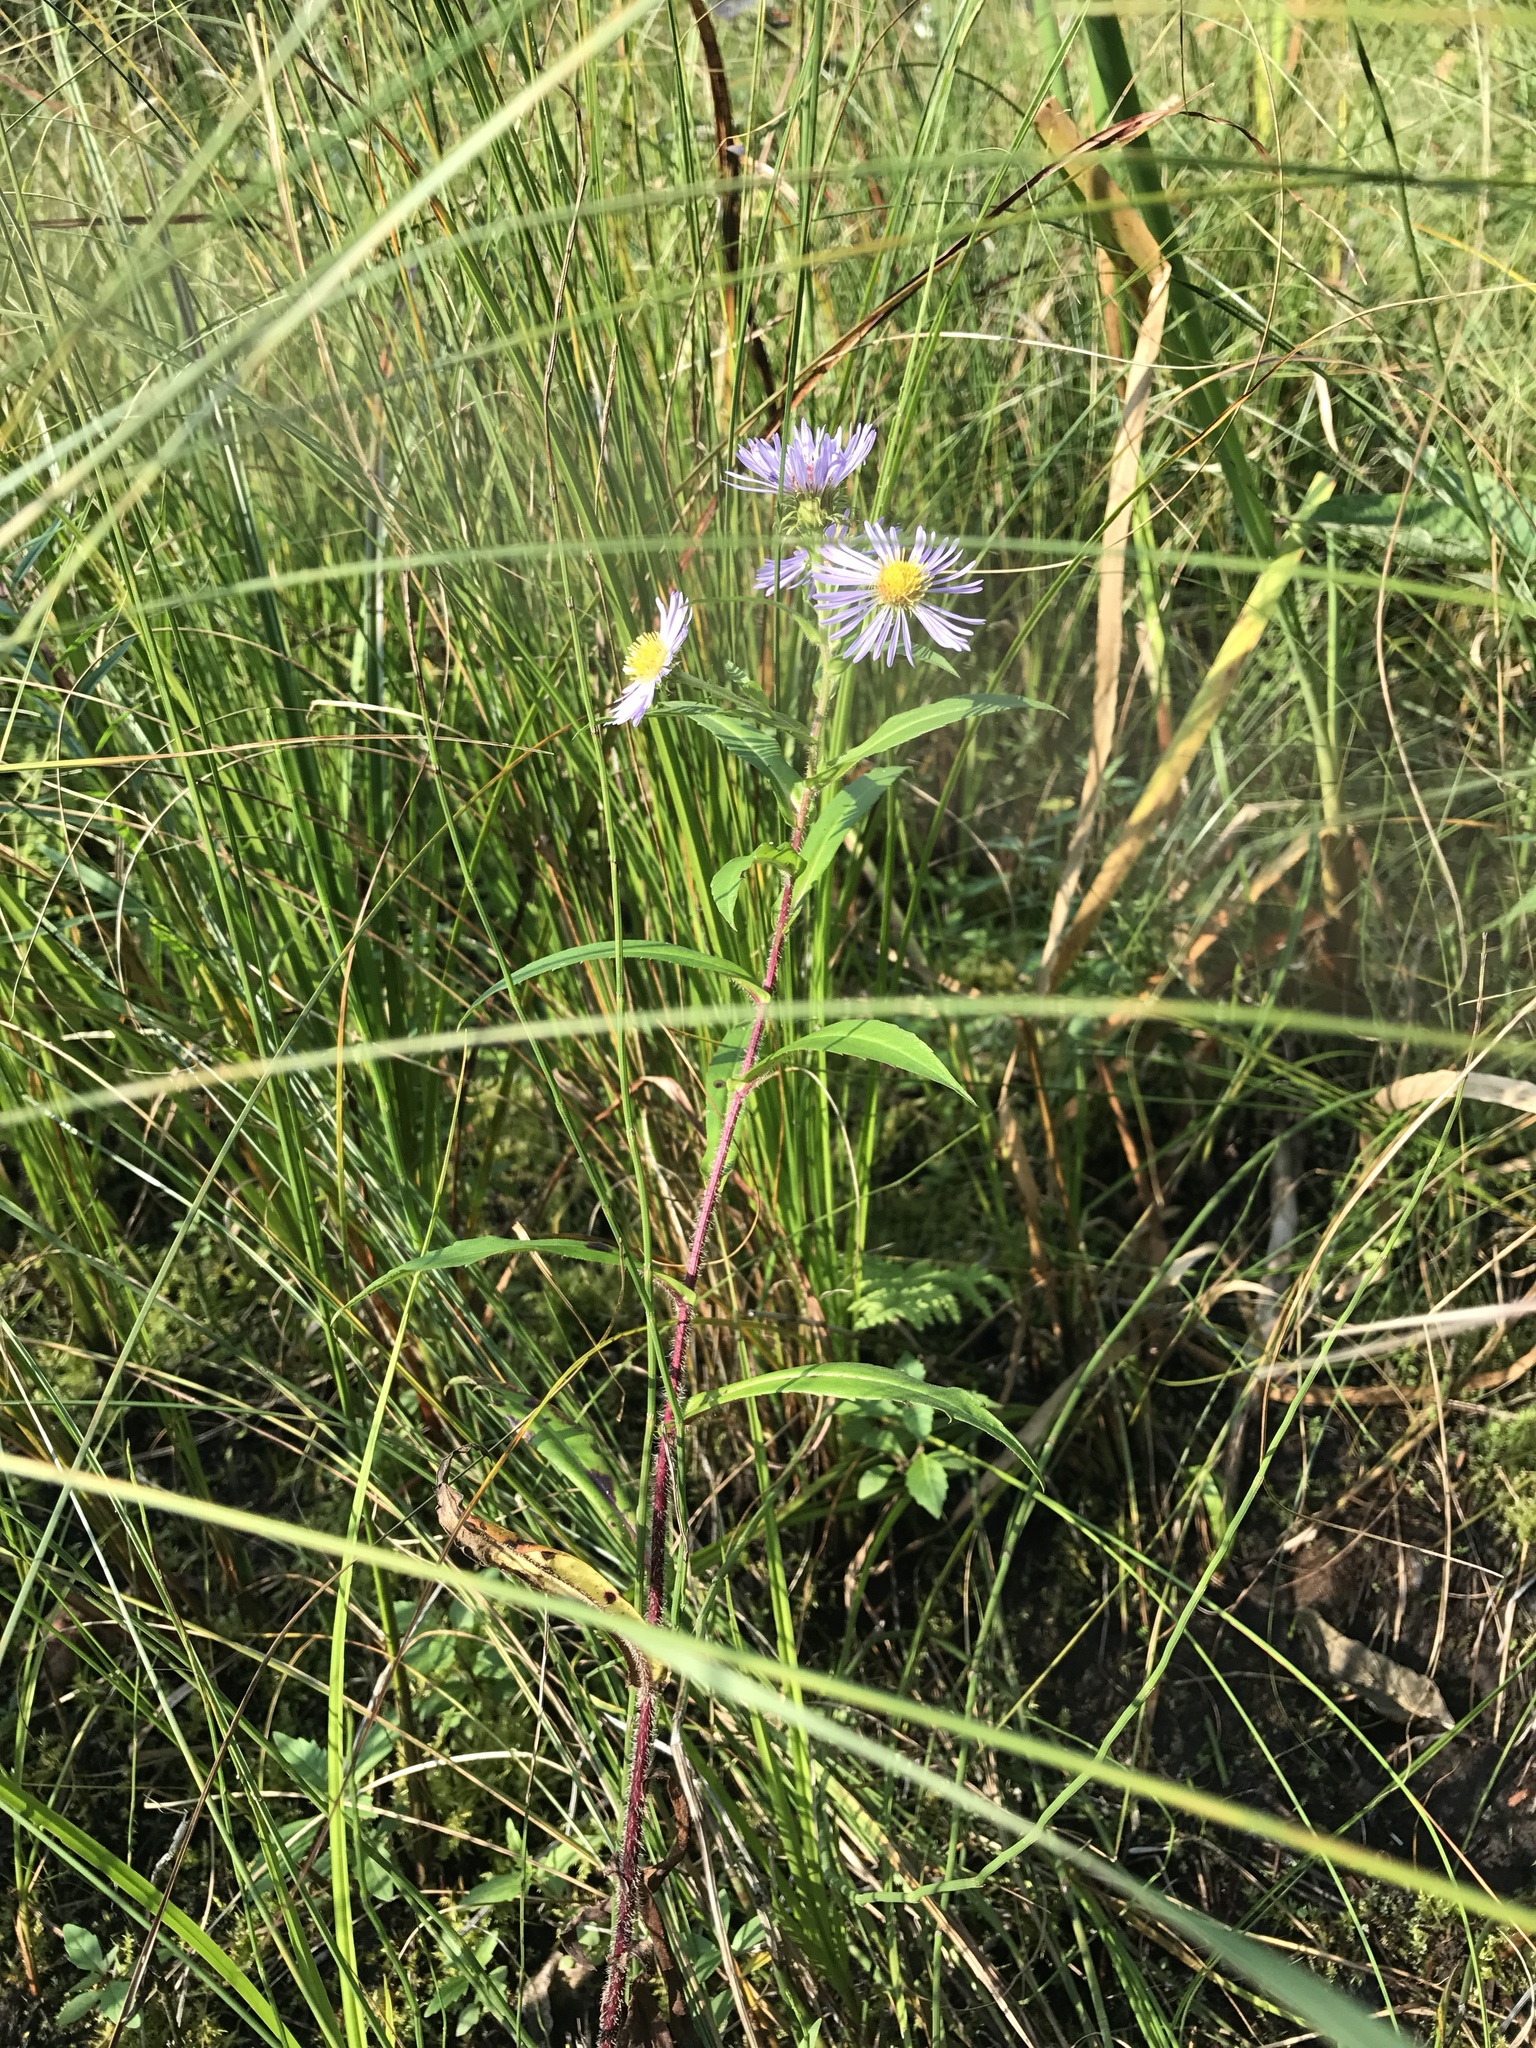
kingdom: Plantae
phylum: Tracheophyta
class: Magnoliopsida
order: Asterales
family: Asteraceae
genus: Symphyotrichum
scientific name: Symphyotrichum puniceum
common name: Bog aster
